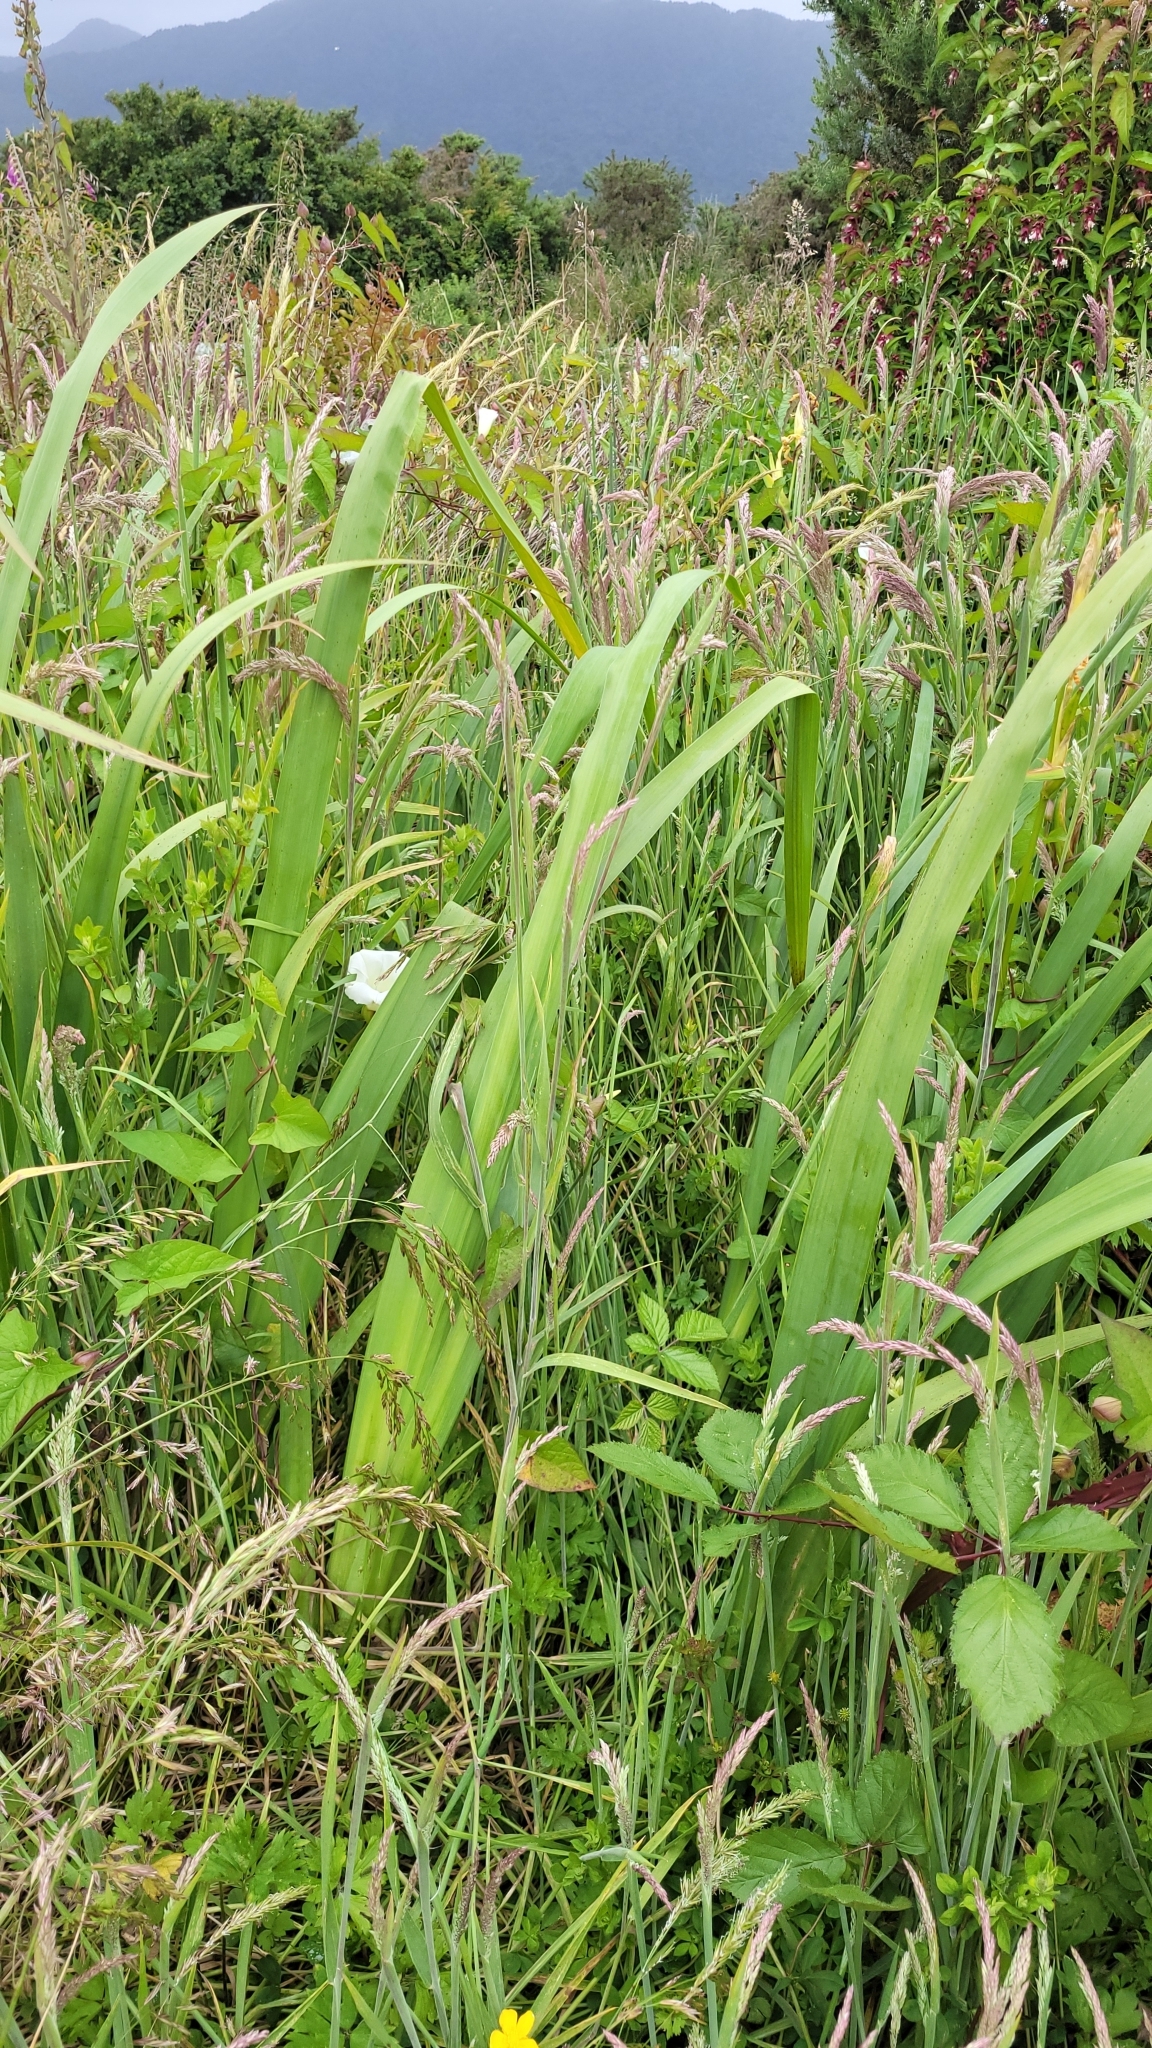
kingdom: Plantae
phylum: Tracheophyta
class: Liliopsida
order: Asparagales
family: Iridaceae
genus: Iris
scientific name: Iris pseudacorus
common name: Yellow flag
